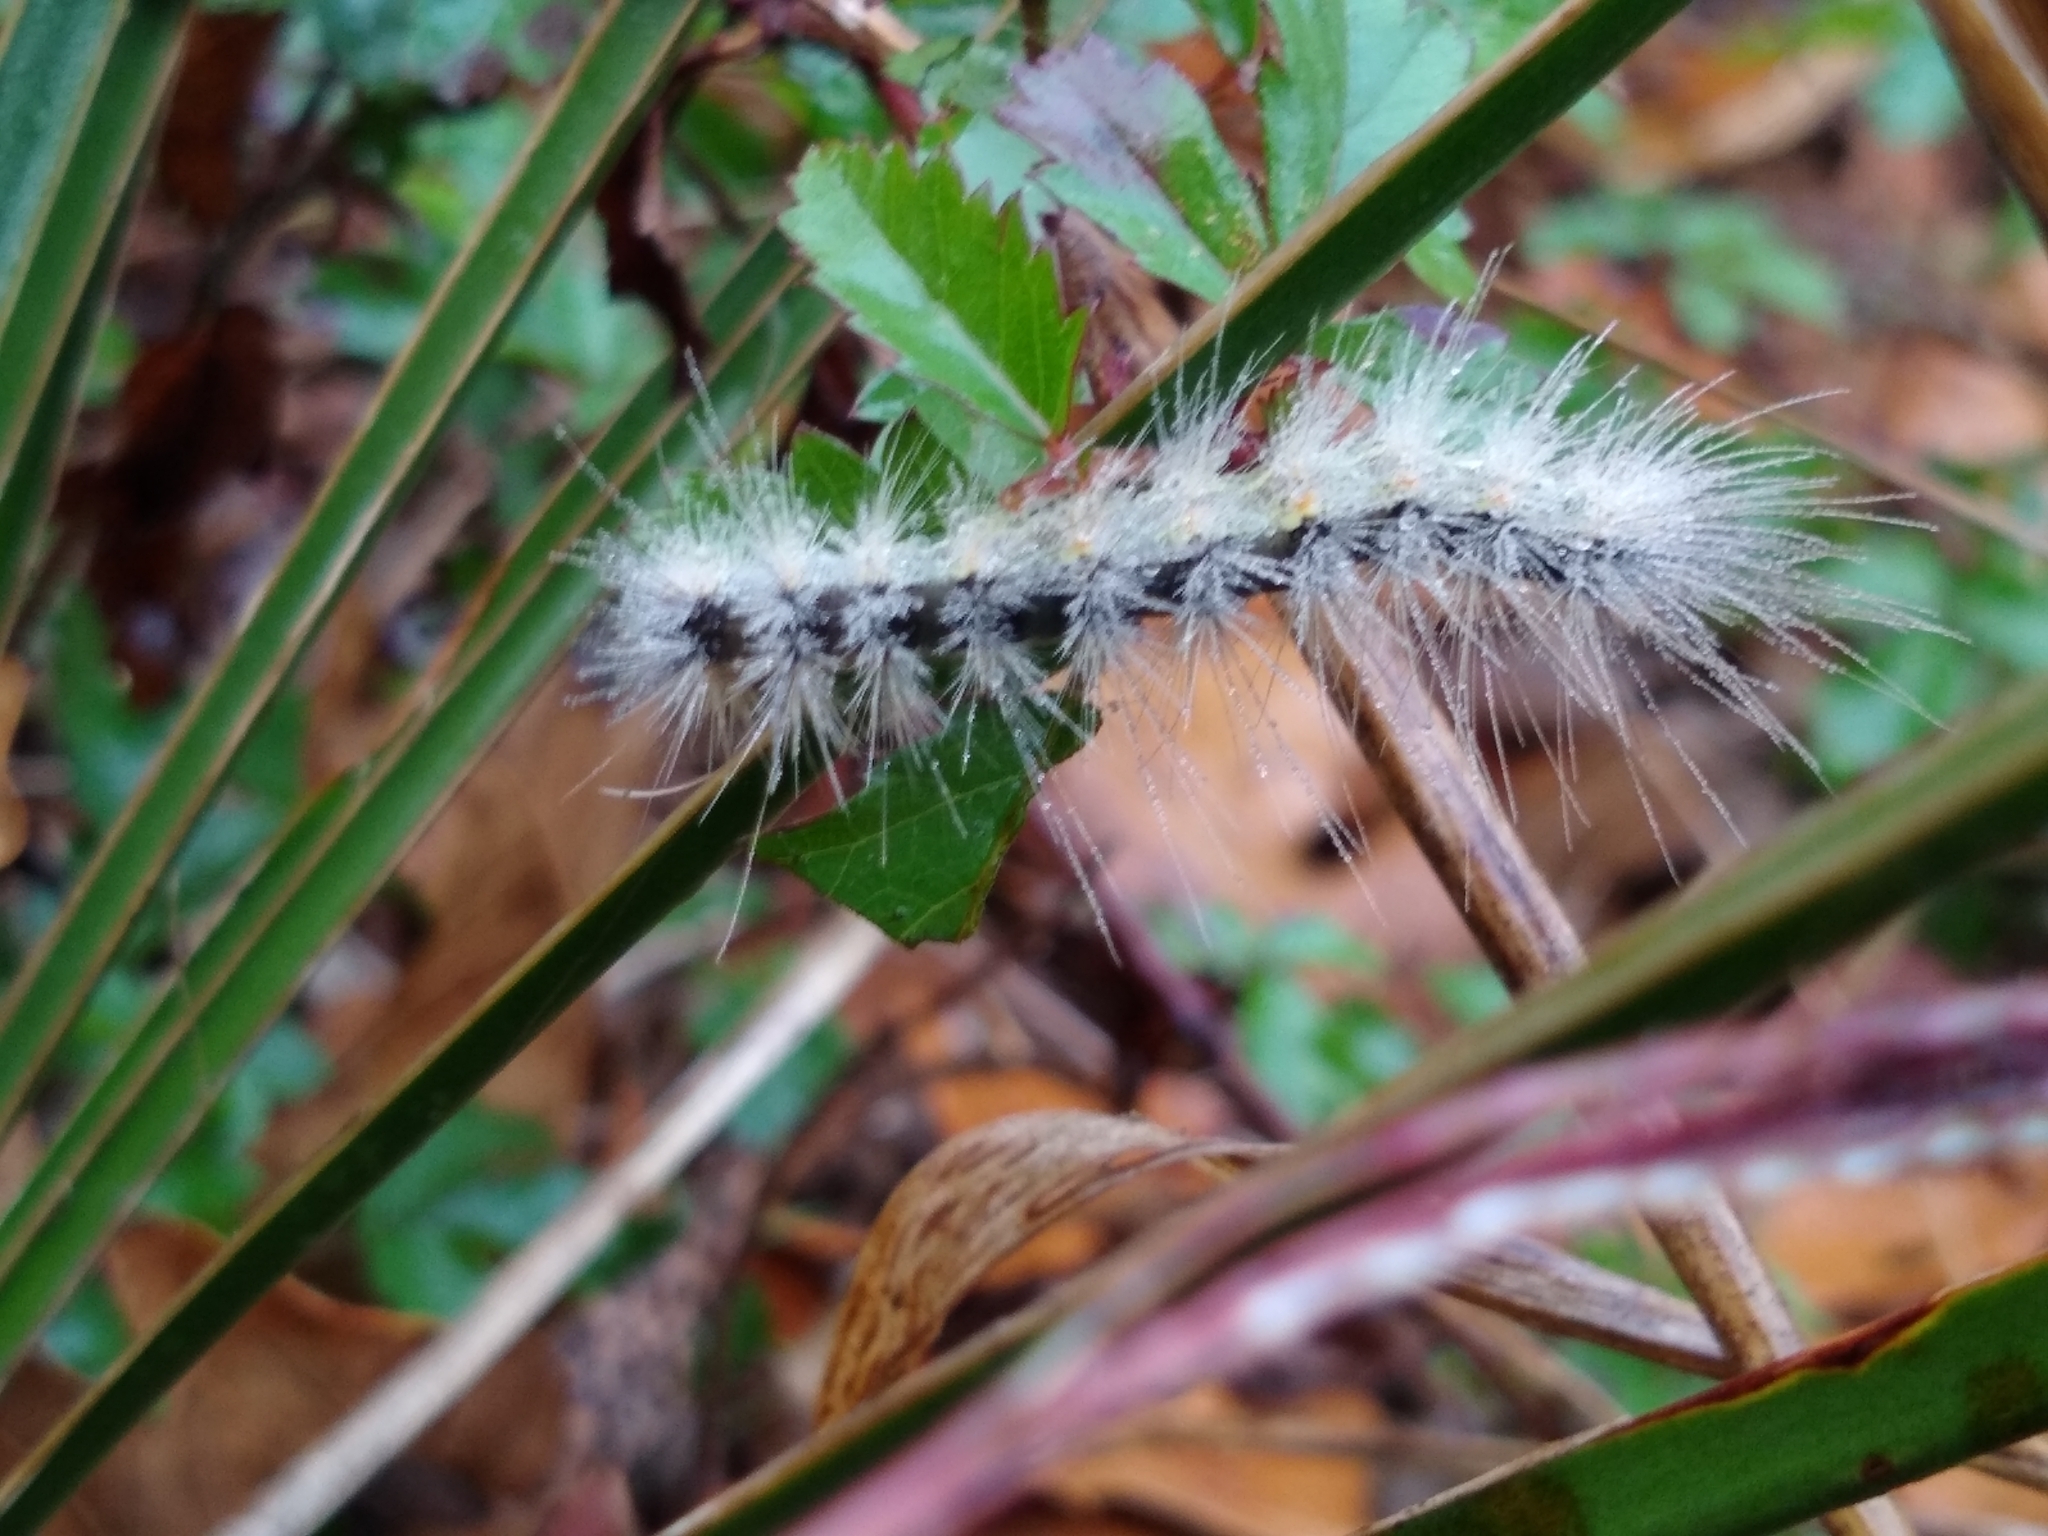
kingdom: Animalia
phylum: Arthropoda
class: Insecta
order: Lepidoptera
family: Erebidae
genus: Hyphantria
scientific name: Hyphantria cunea
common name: American white moth
